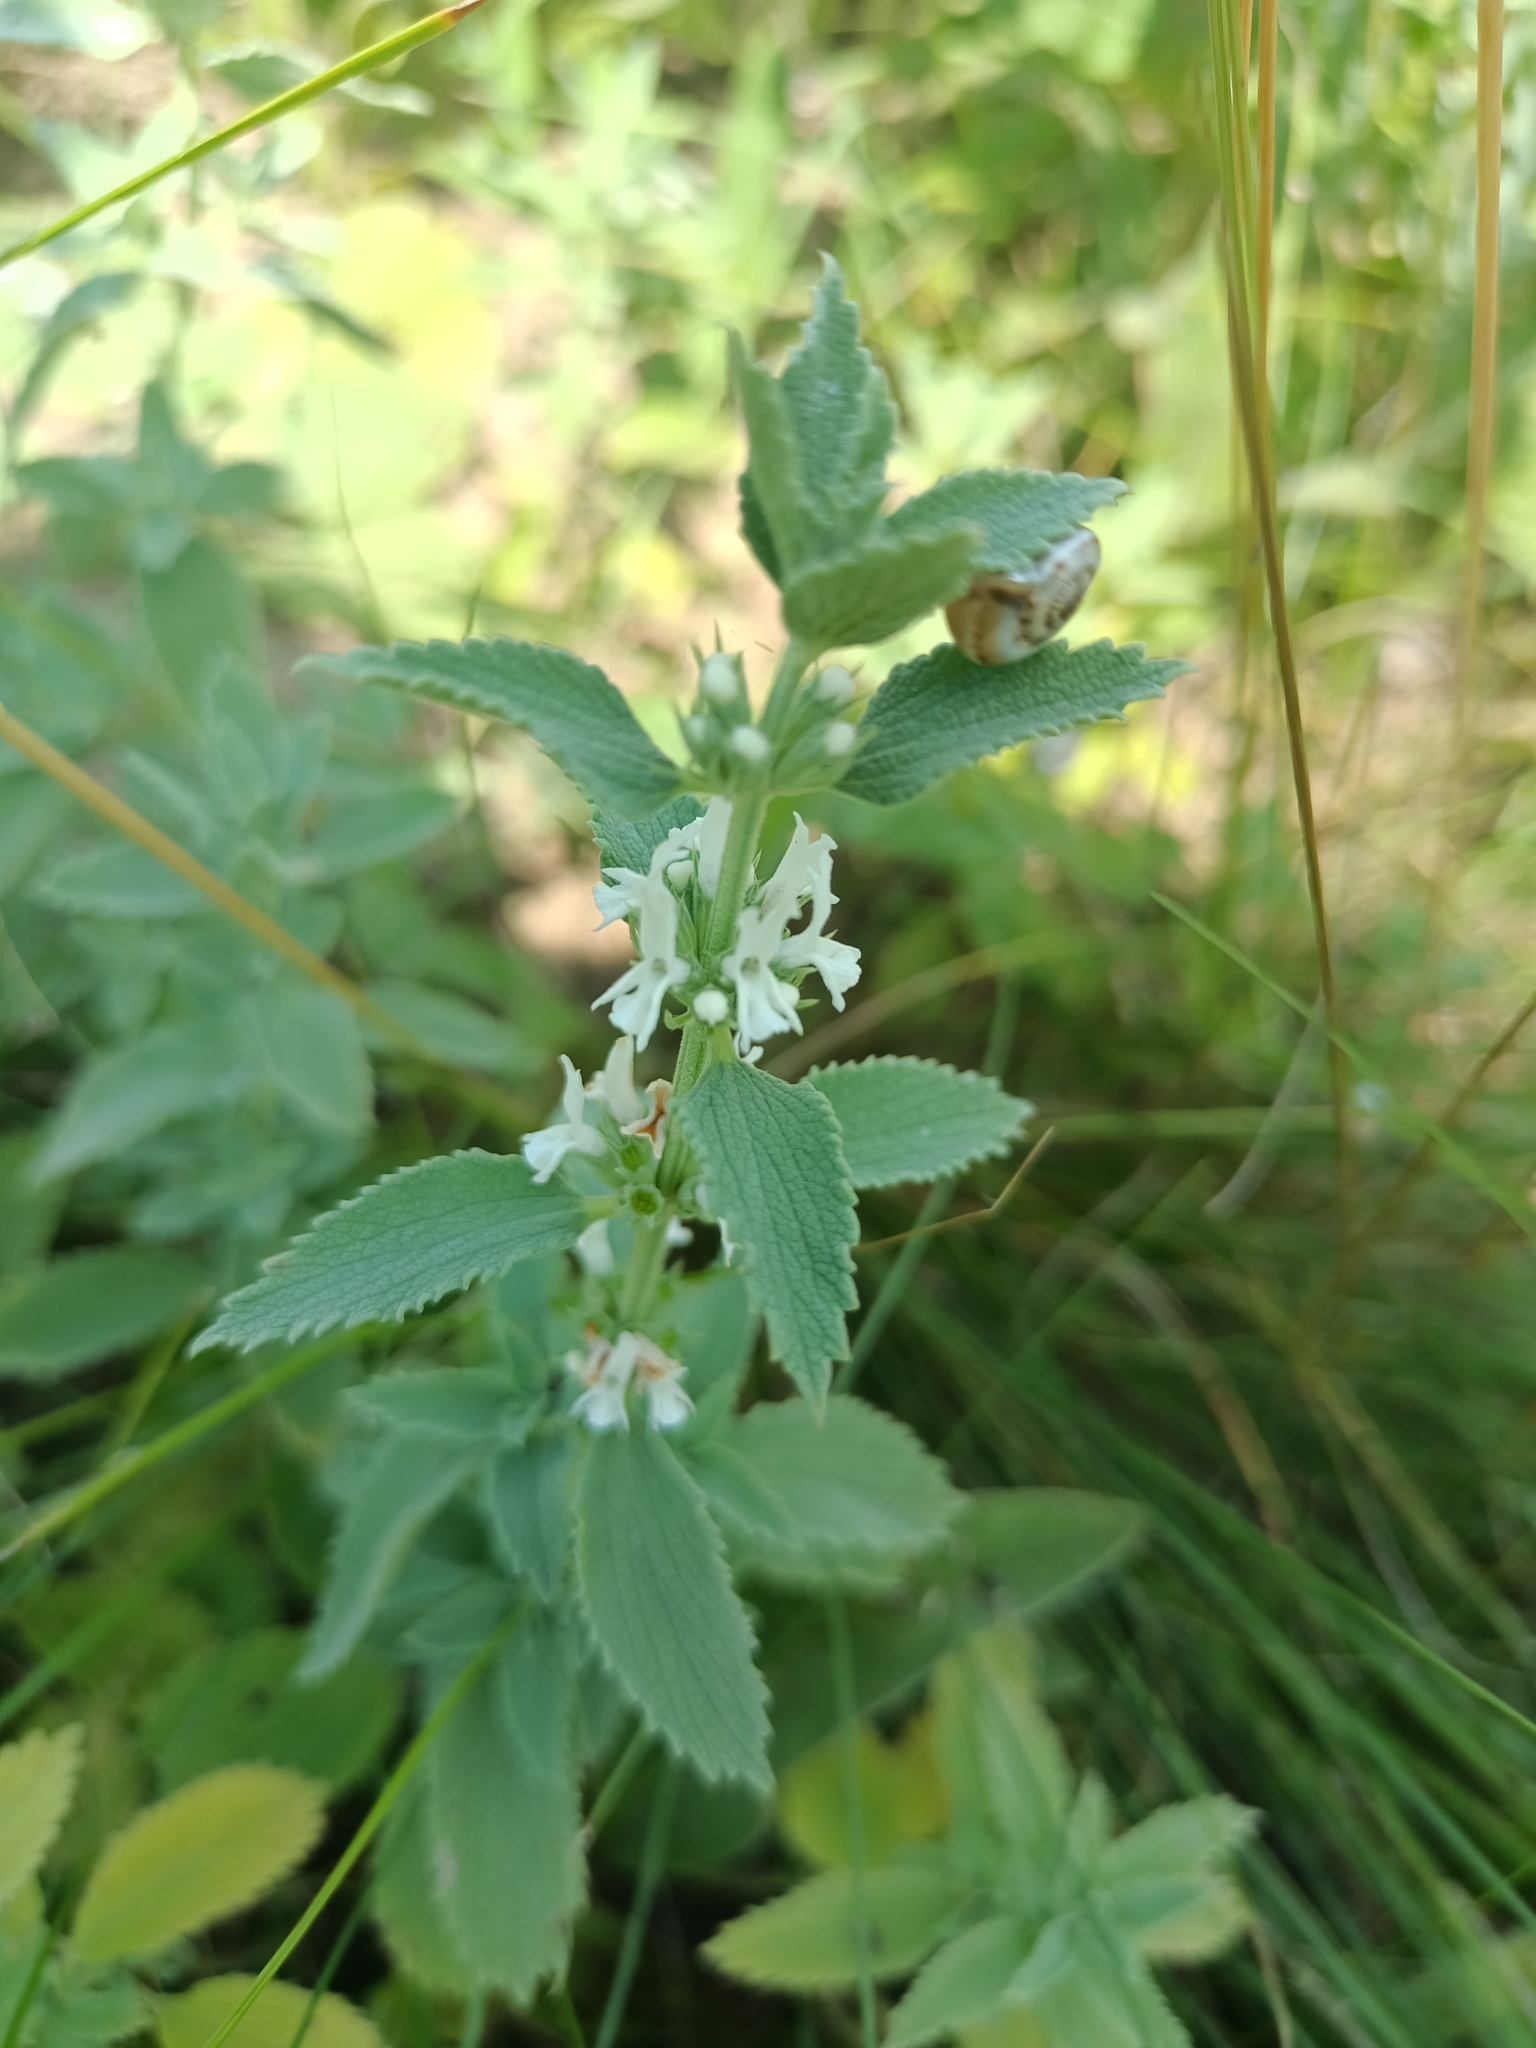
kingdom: Plantae
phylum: Tracheophyta
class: Magnoliopsida
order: Lamiales
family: Lamiaceae
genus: Marrubium
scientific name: Marrubium peregrinum
